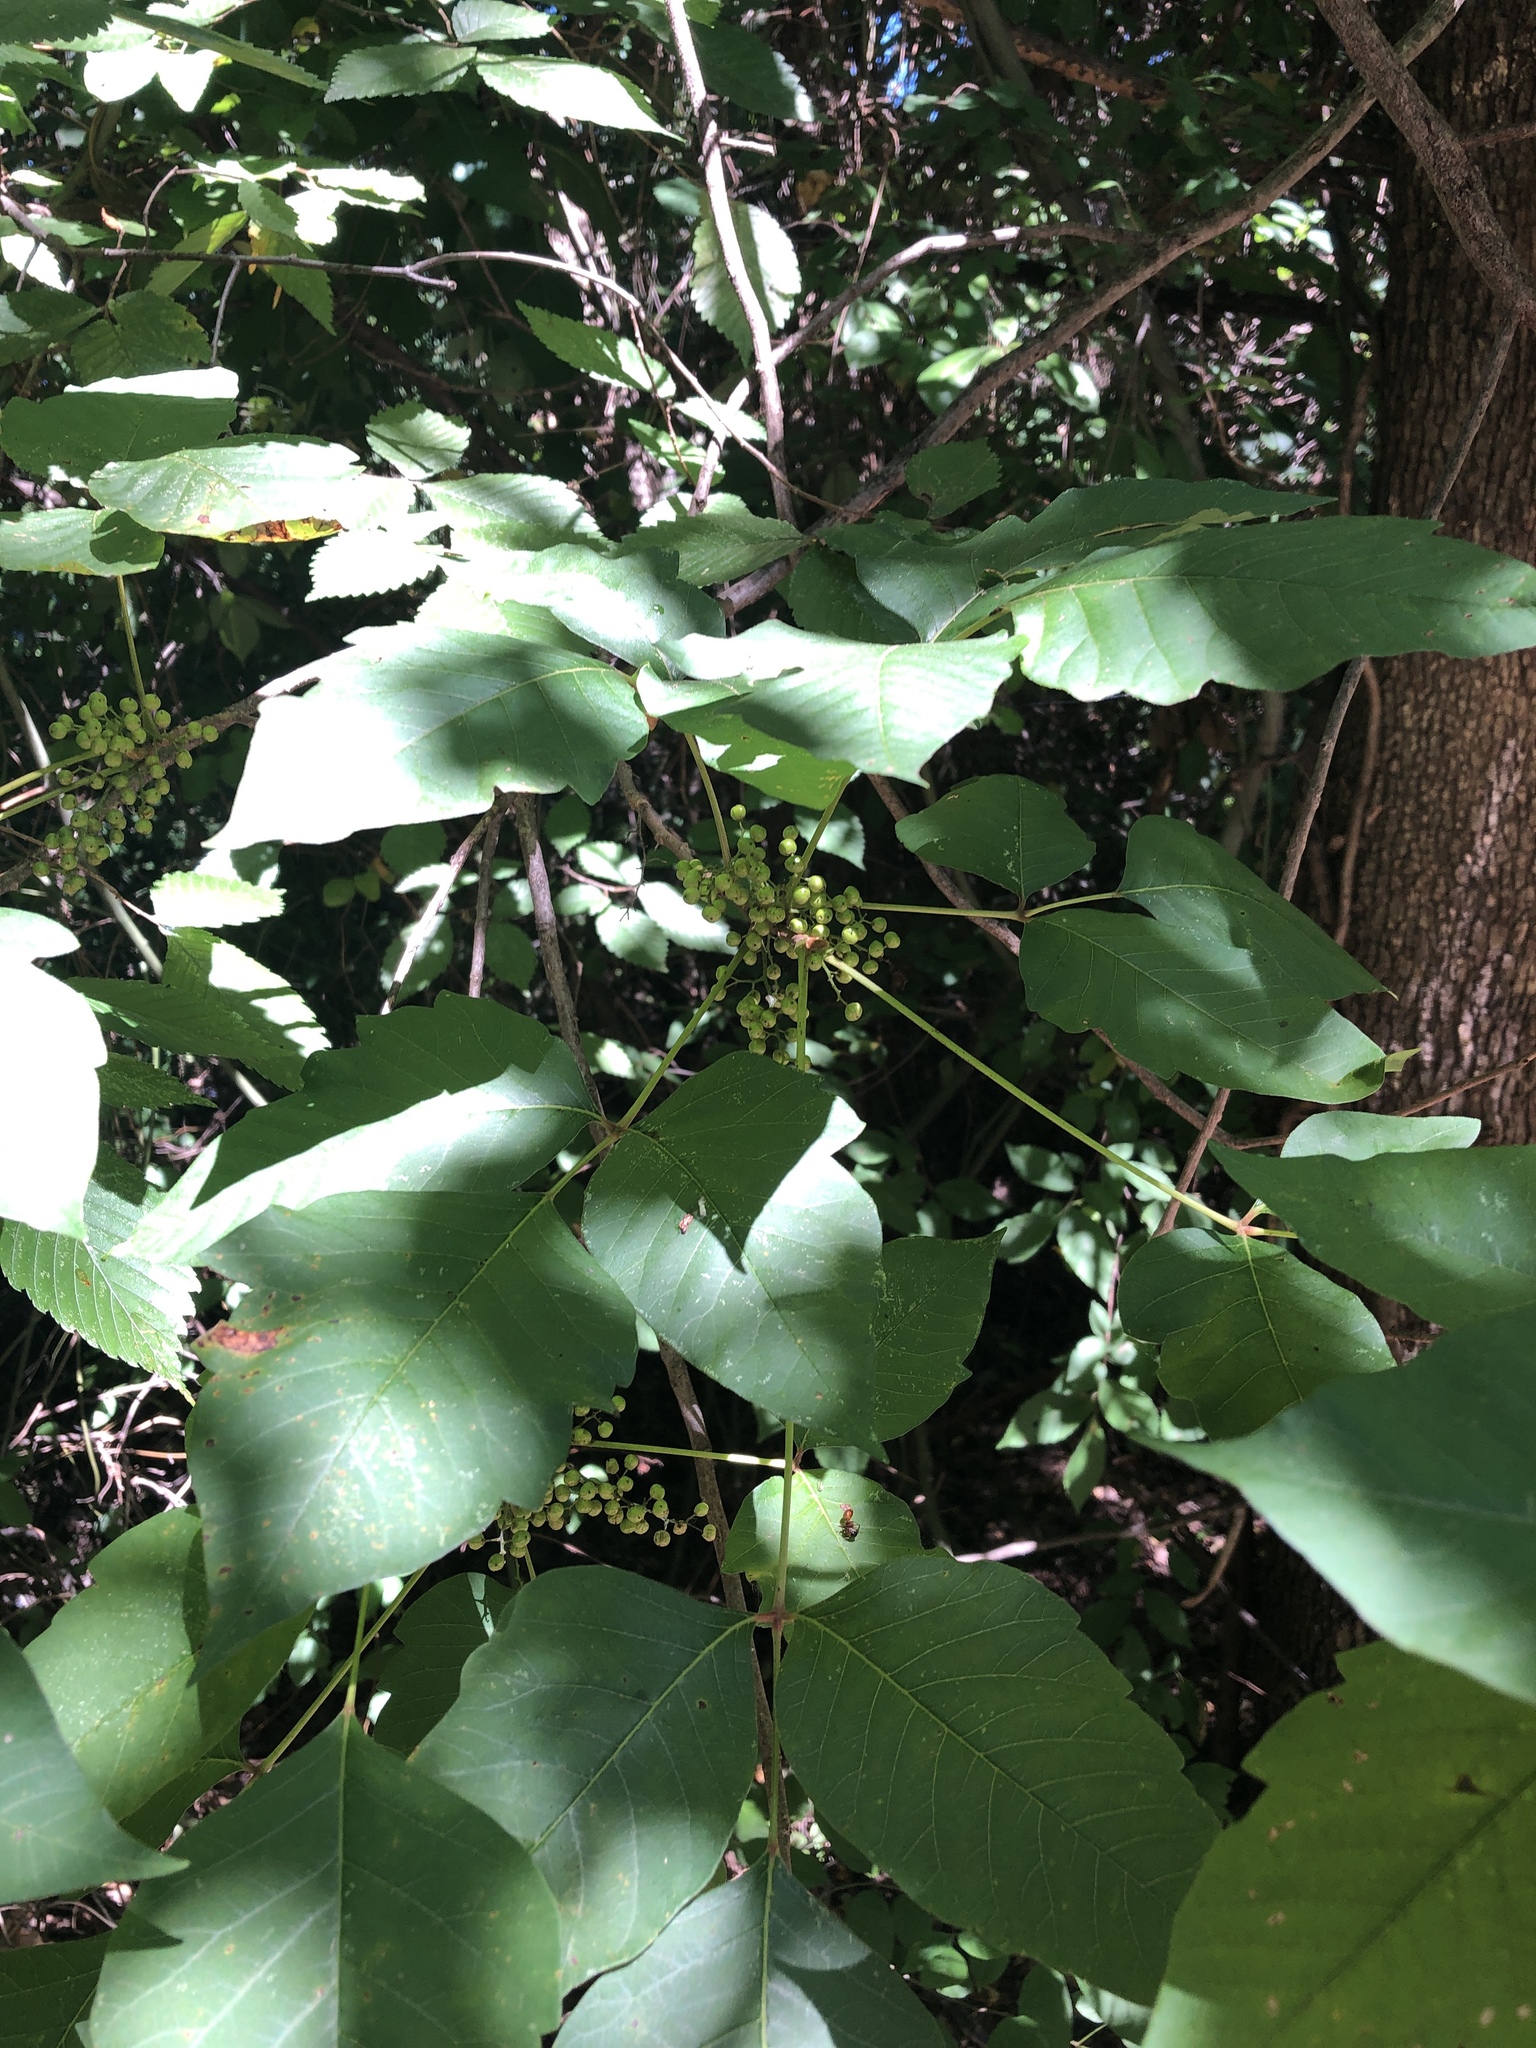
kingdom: Plantae
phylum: Tracheophyta
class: Magnoliopsida
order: Sapindales
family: Anacardiaceae
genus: Toxicodendron
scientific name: Toxicodendron radicans
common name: Poison ivy
